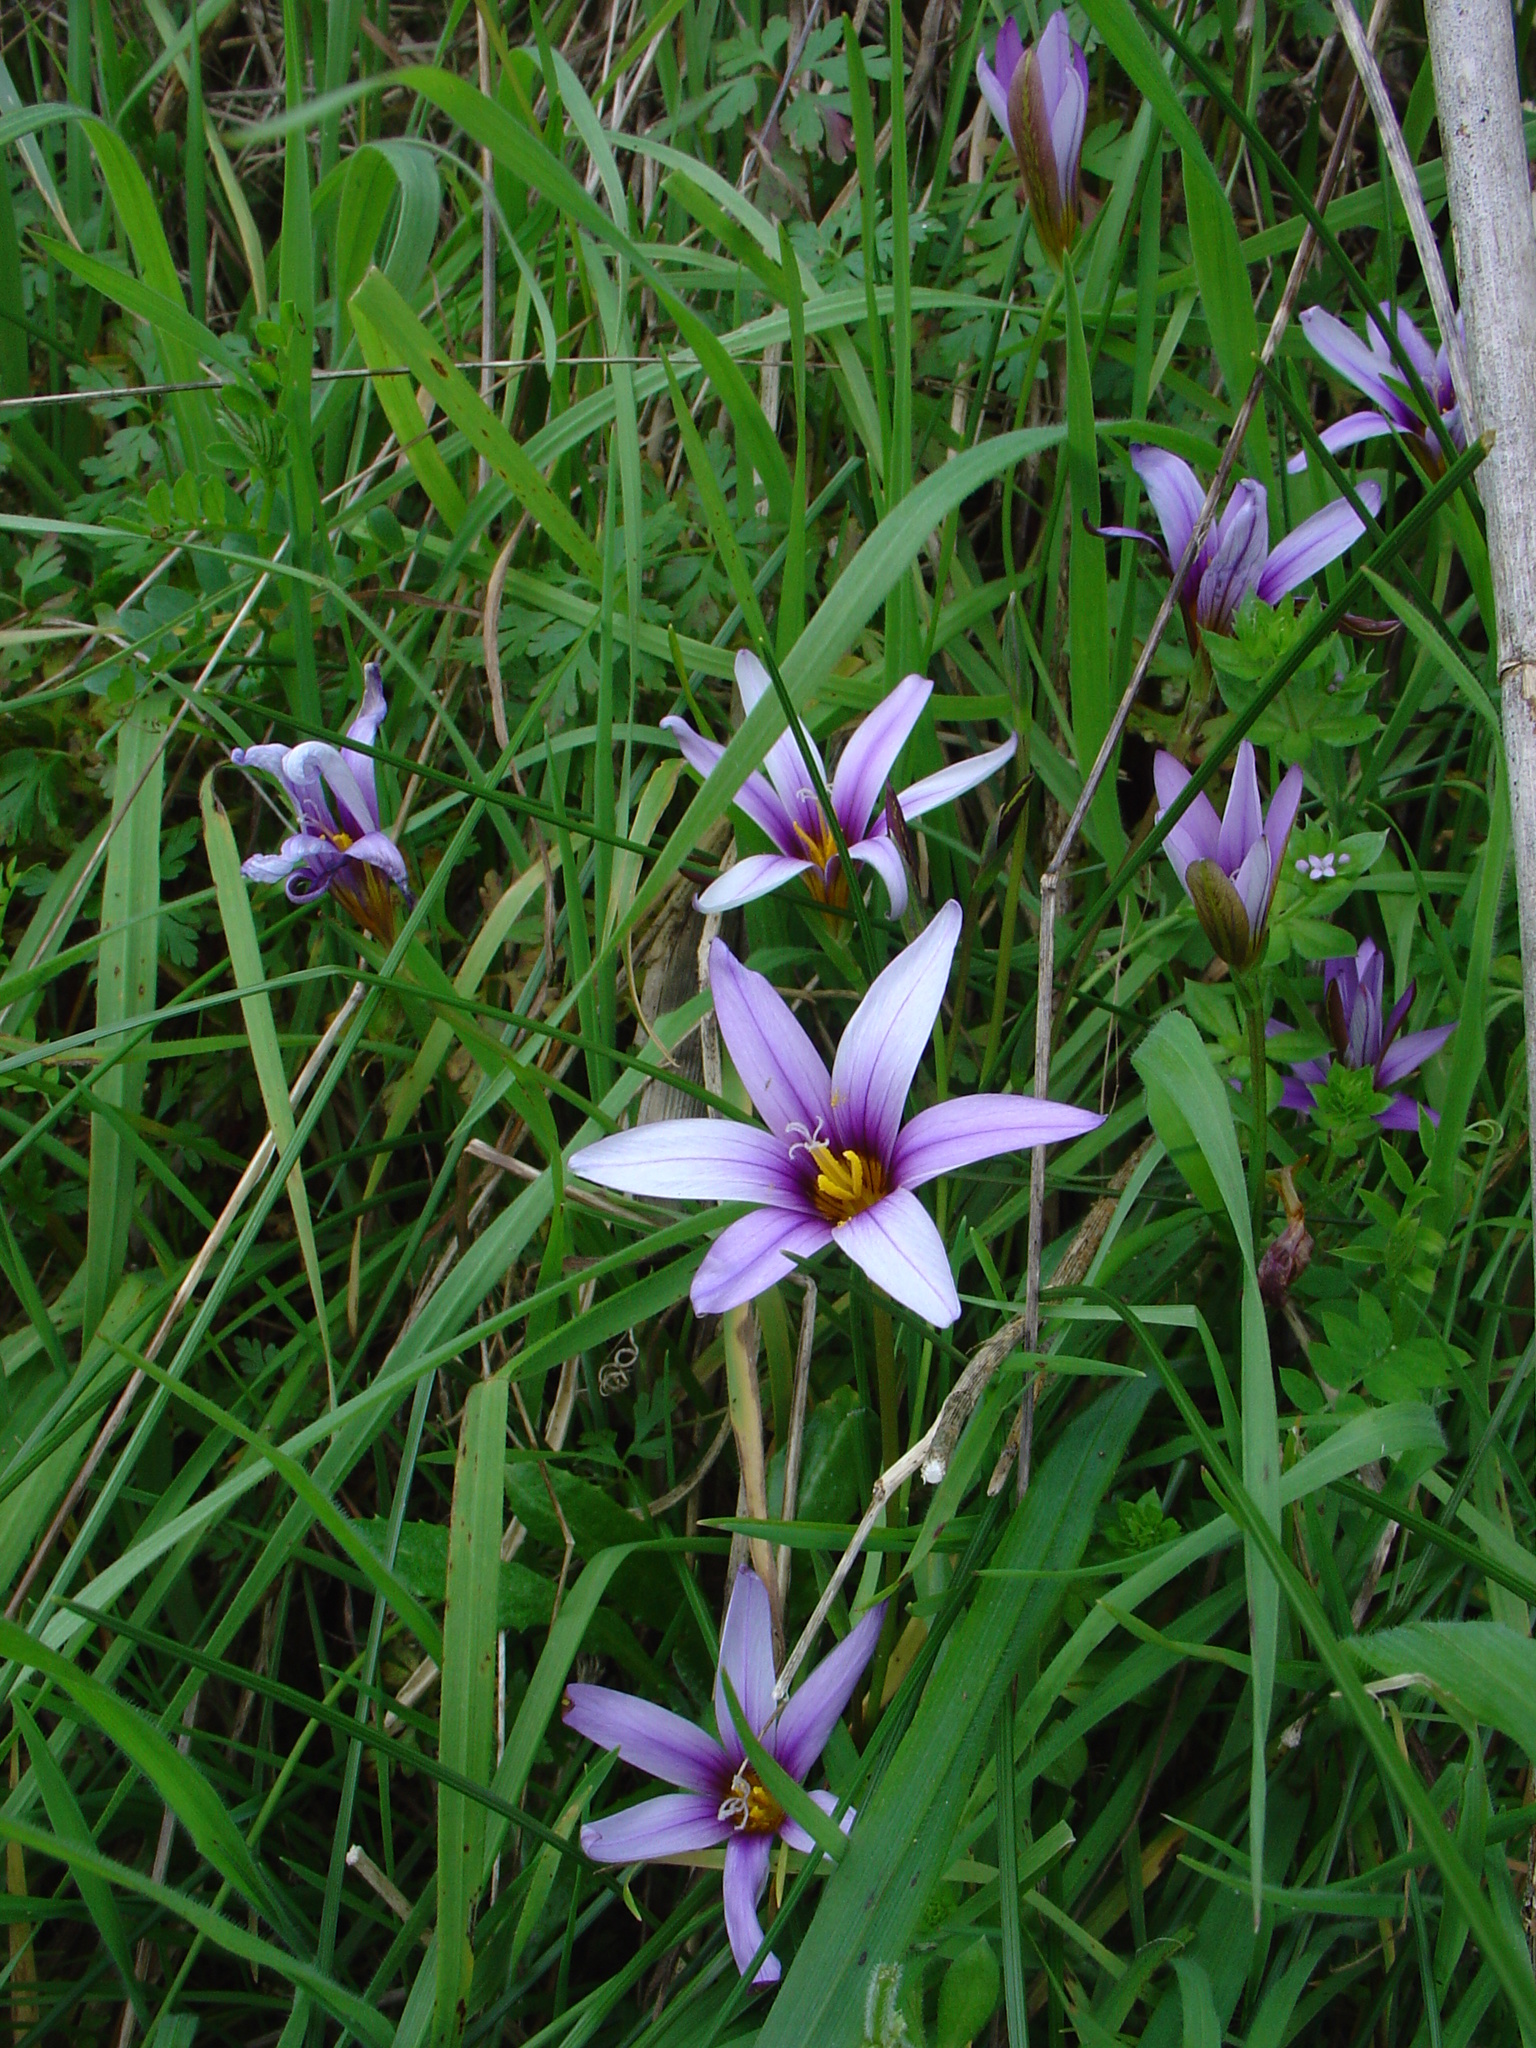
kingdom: Plantae
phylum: Tracheophyta
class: Liliopsida
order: Asparagales
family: Iridaceae
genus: Romulea
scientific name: Romulea columnae
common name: Sand-crocus
